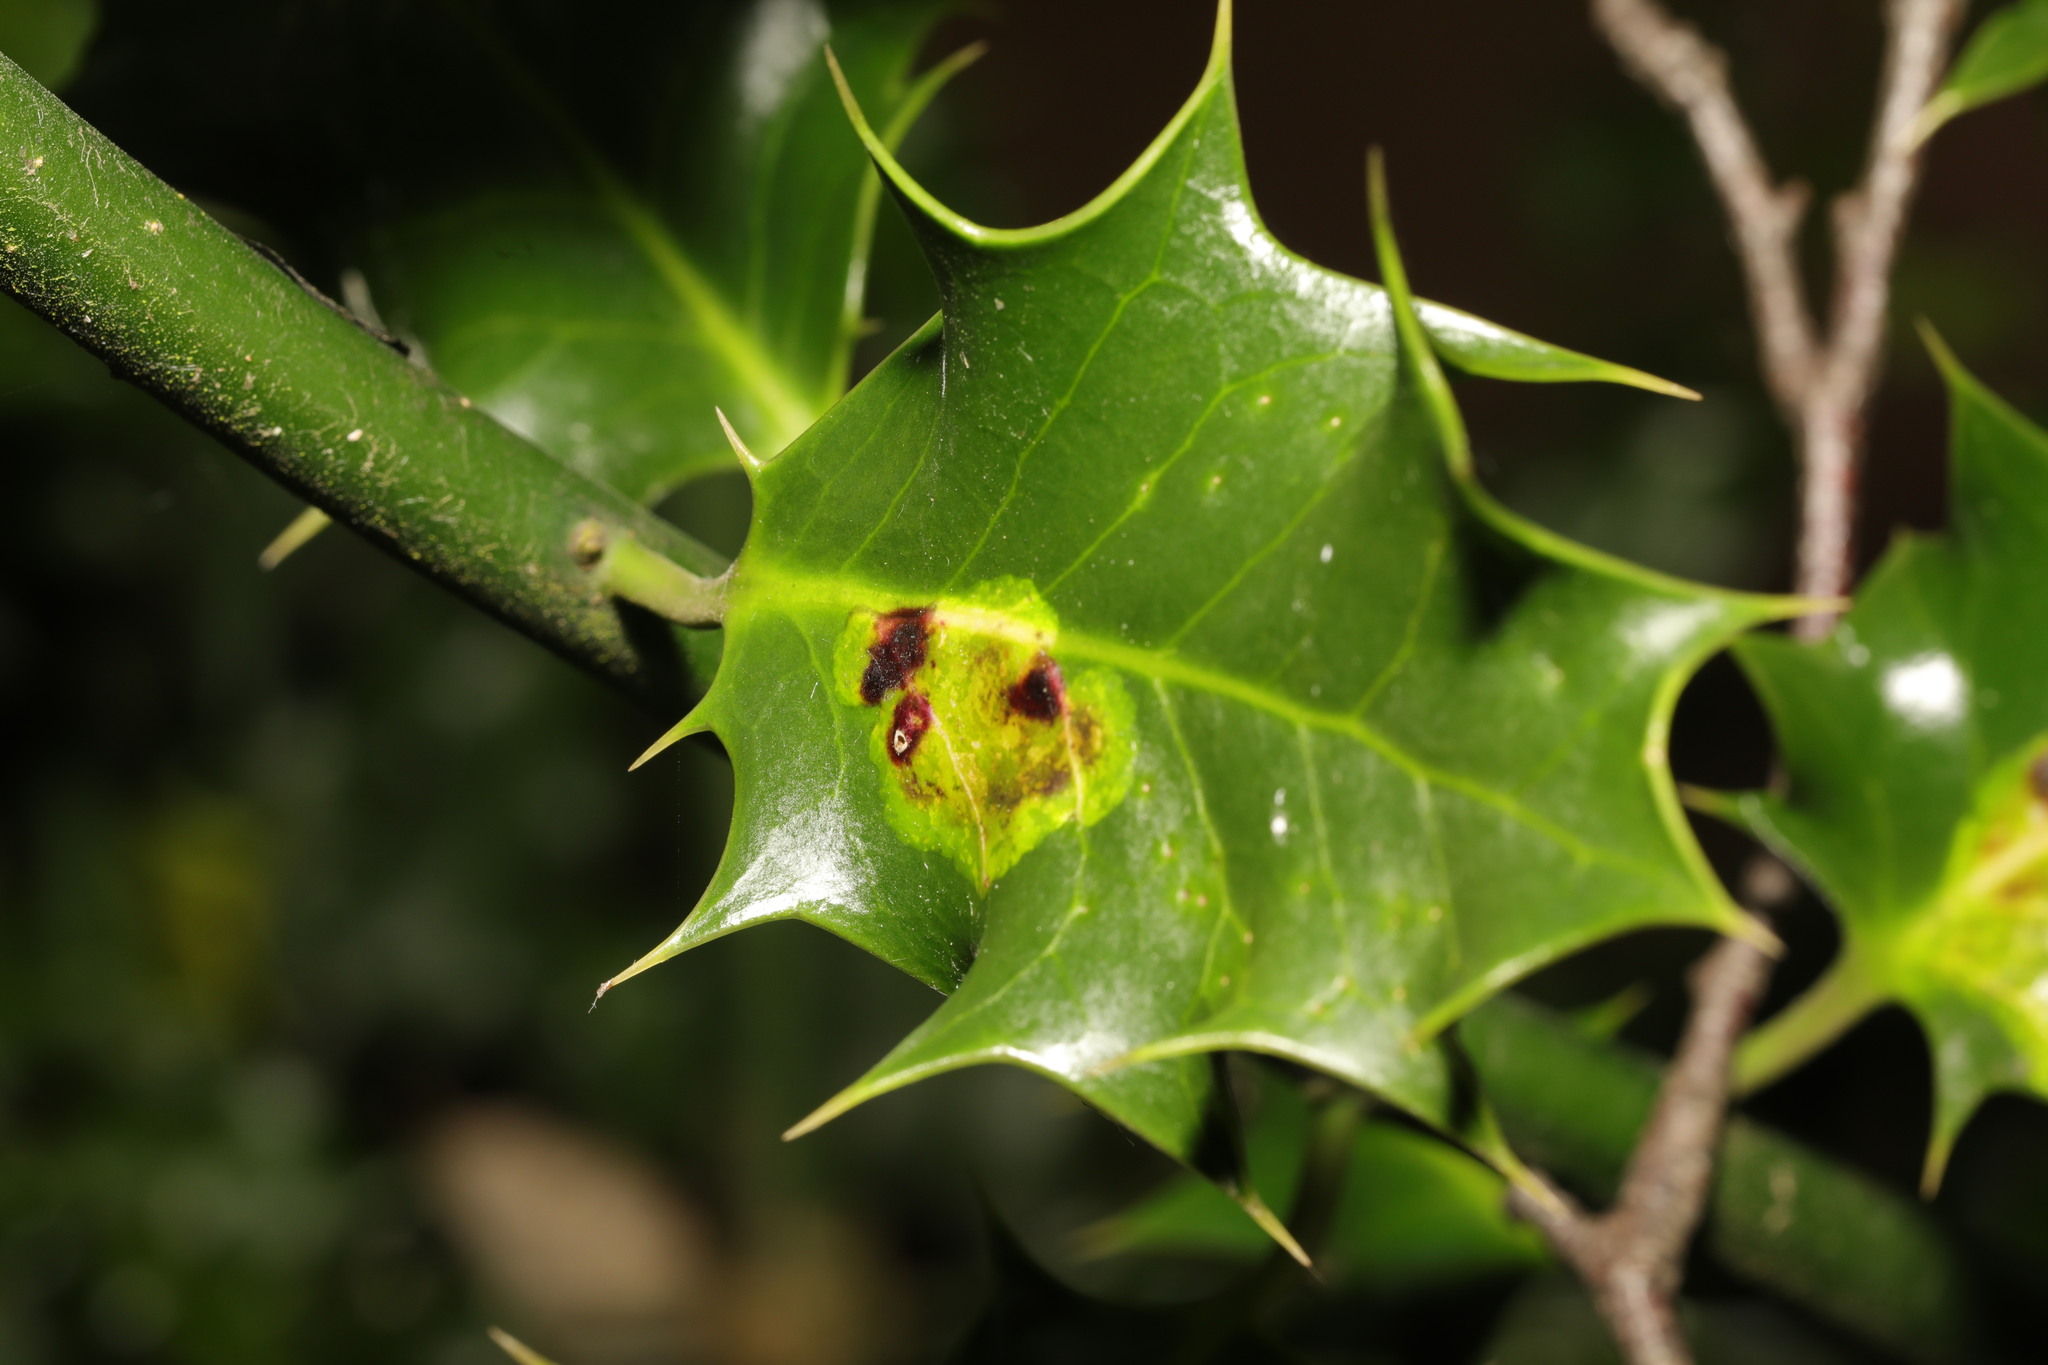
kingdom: Animalia
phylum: Arthropoda
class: Insecta
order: Diptera
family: Agromyzidae
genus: Phytomyza
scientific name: Phytomyza ilicis
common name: Holly leafminer
